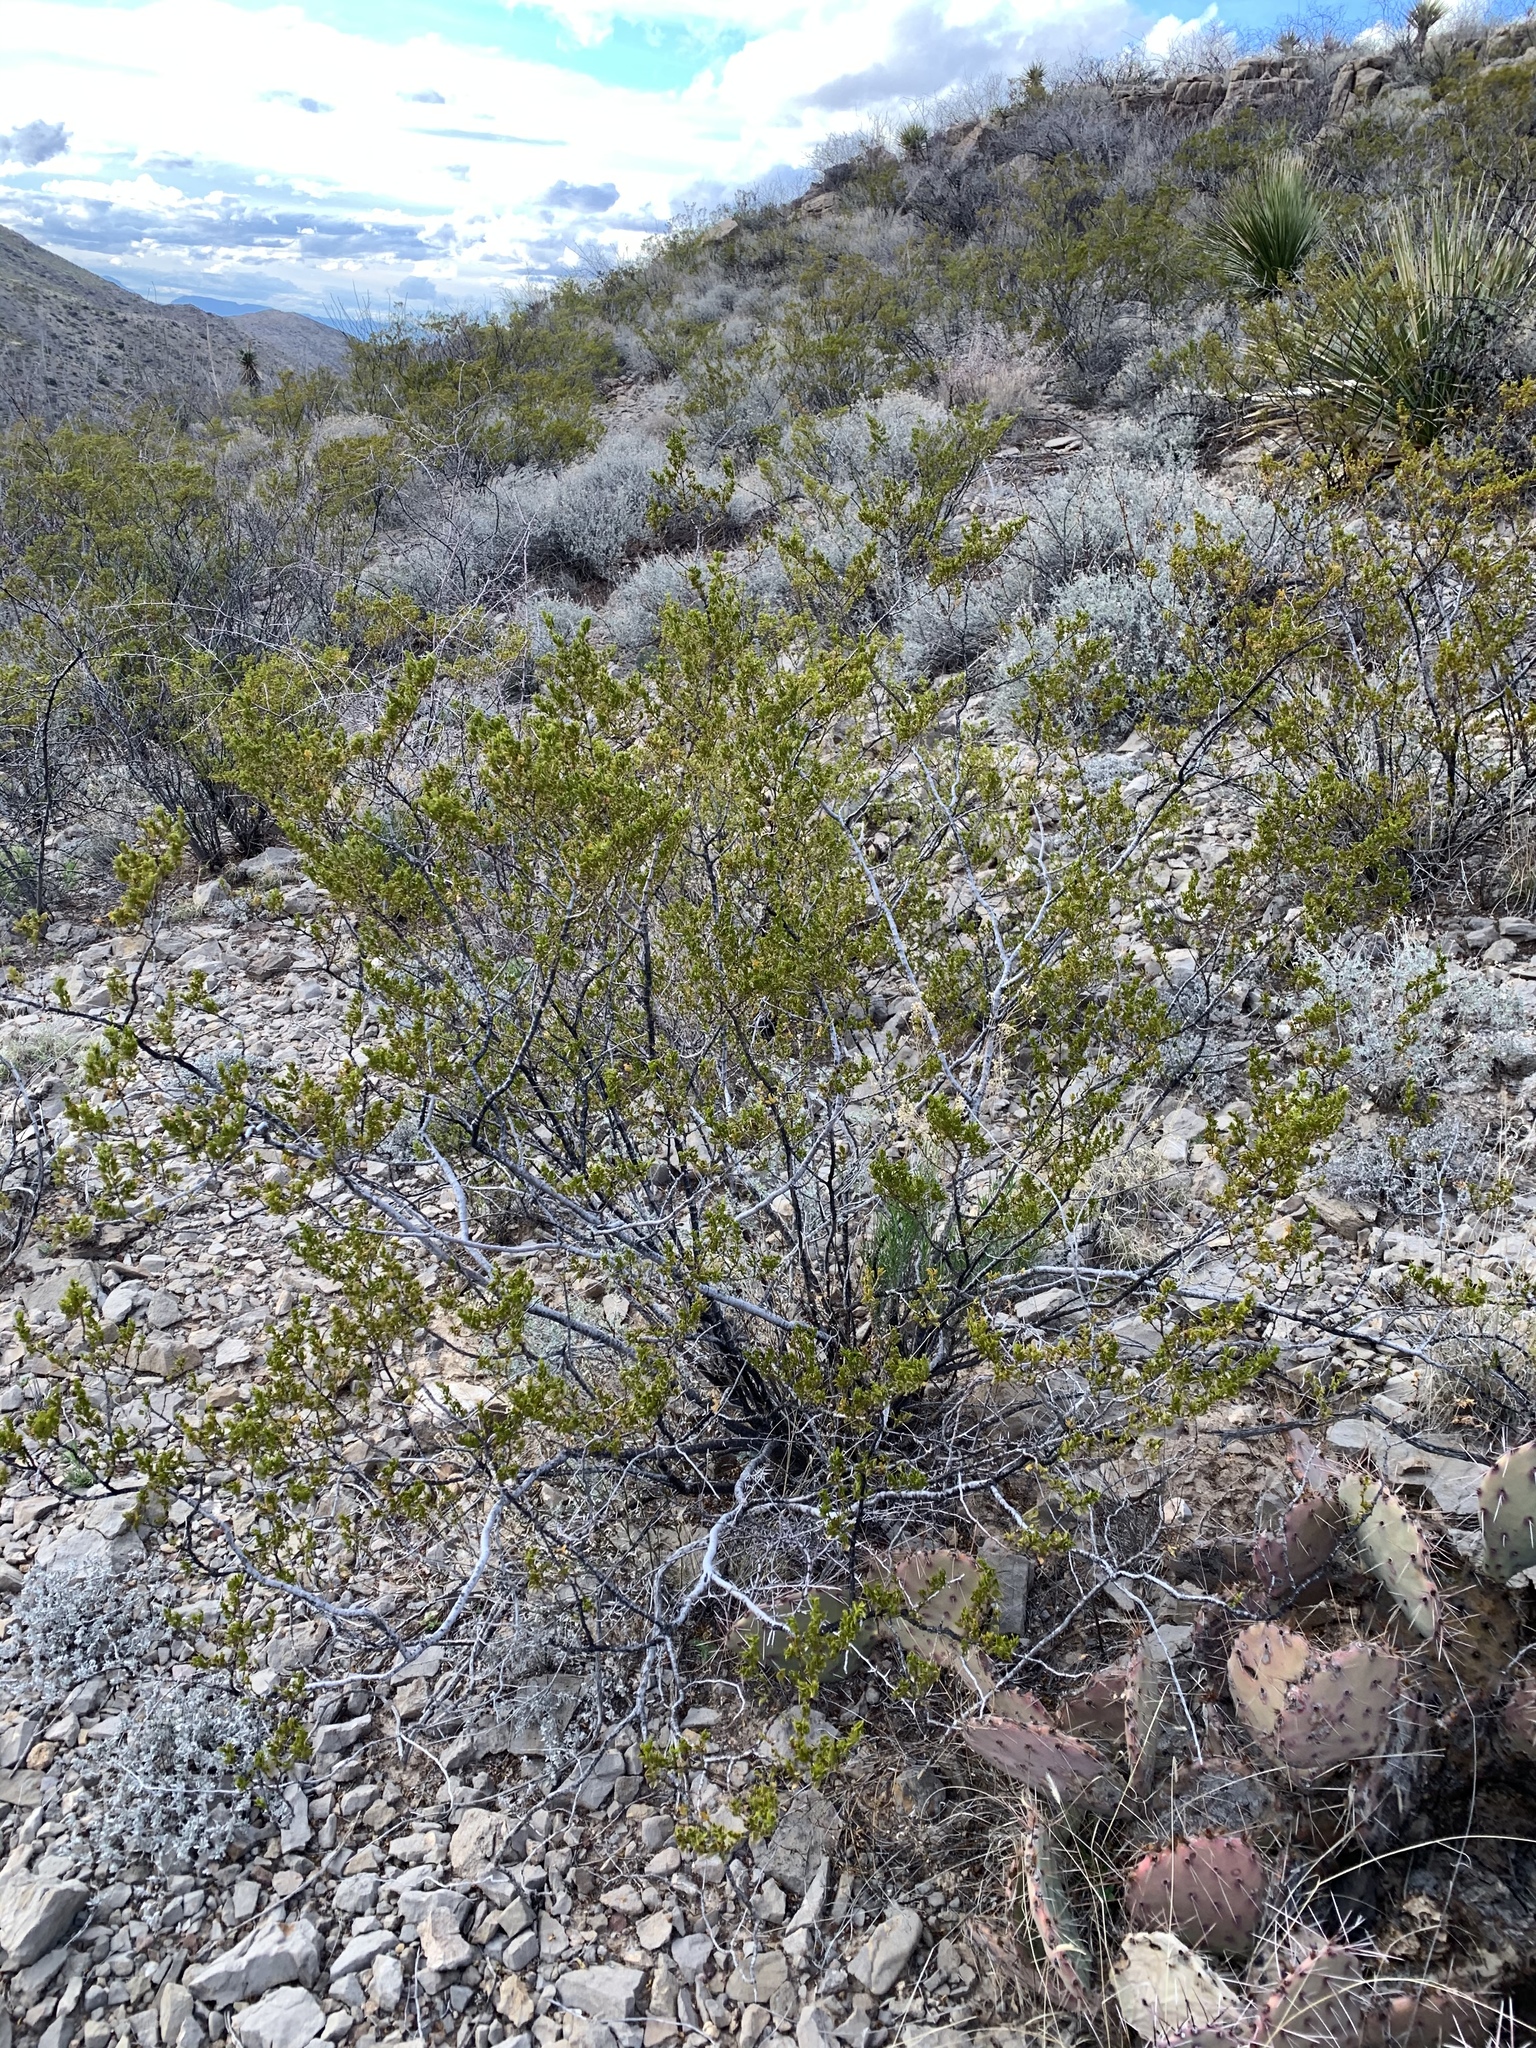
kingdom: Plantae
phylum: Tracheophyta
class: Magnoliopsida
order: Zygophyllales
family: Zygophyllaceae
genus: Larrea
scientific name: Larrea tridentata
